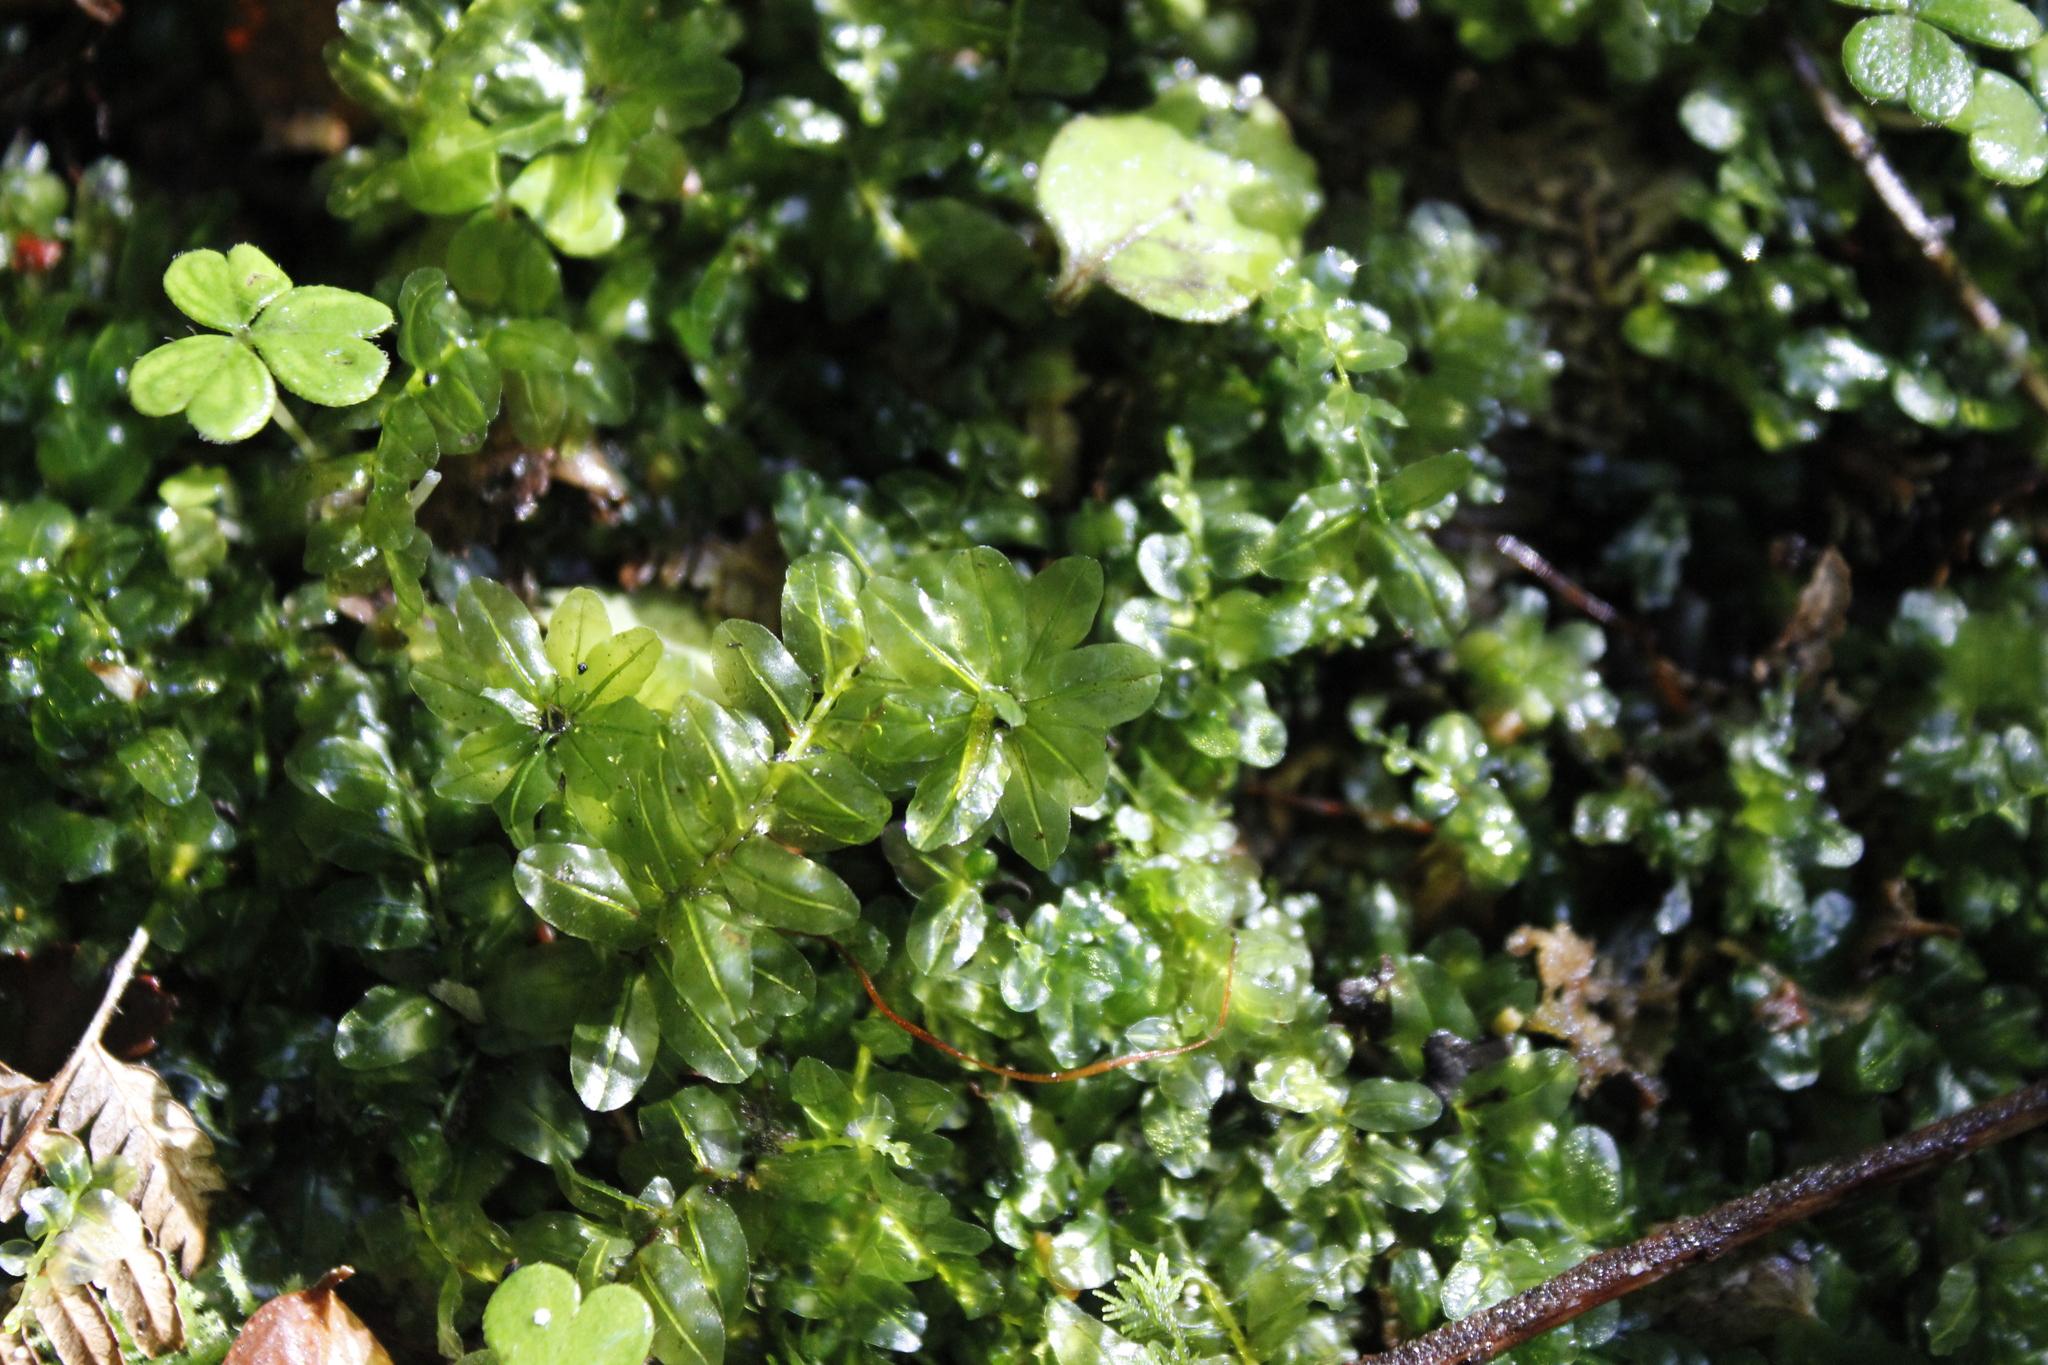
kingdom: Plantae
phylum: Bryophyta
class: Bryopsida
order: Bryales
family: Mniaceae
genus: Plagiomnium
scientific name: Plagiomnium novae-zealandiae
